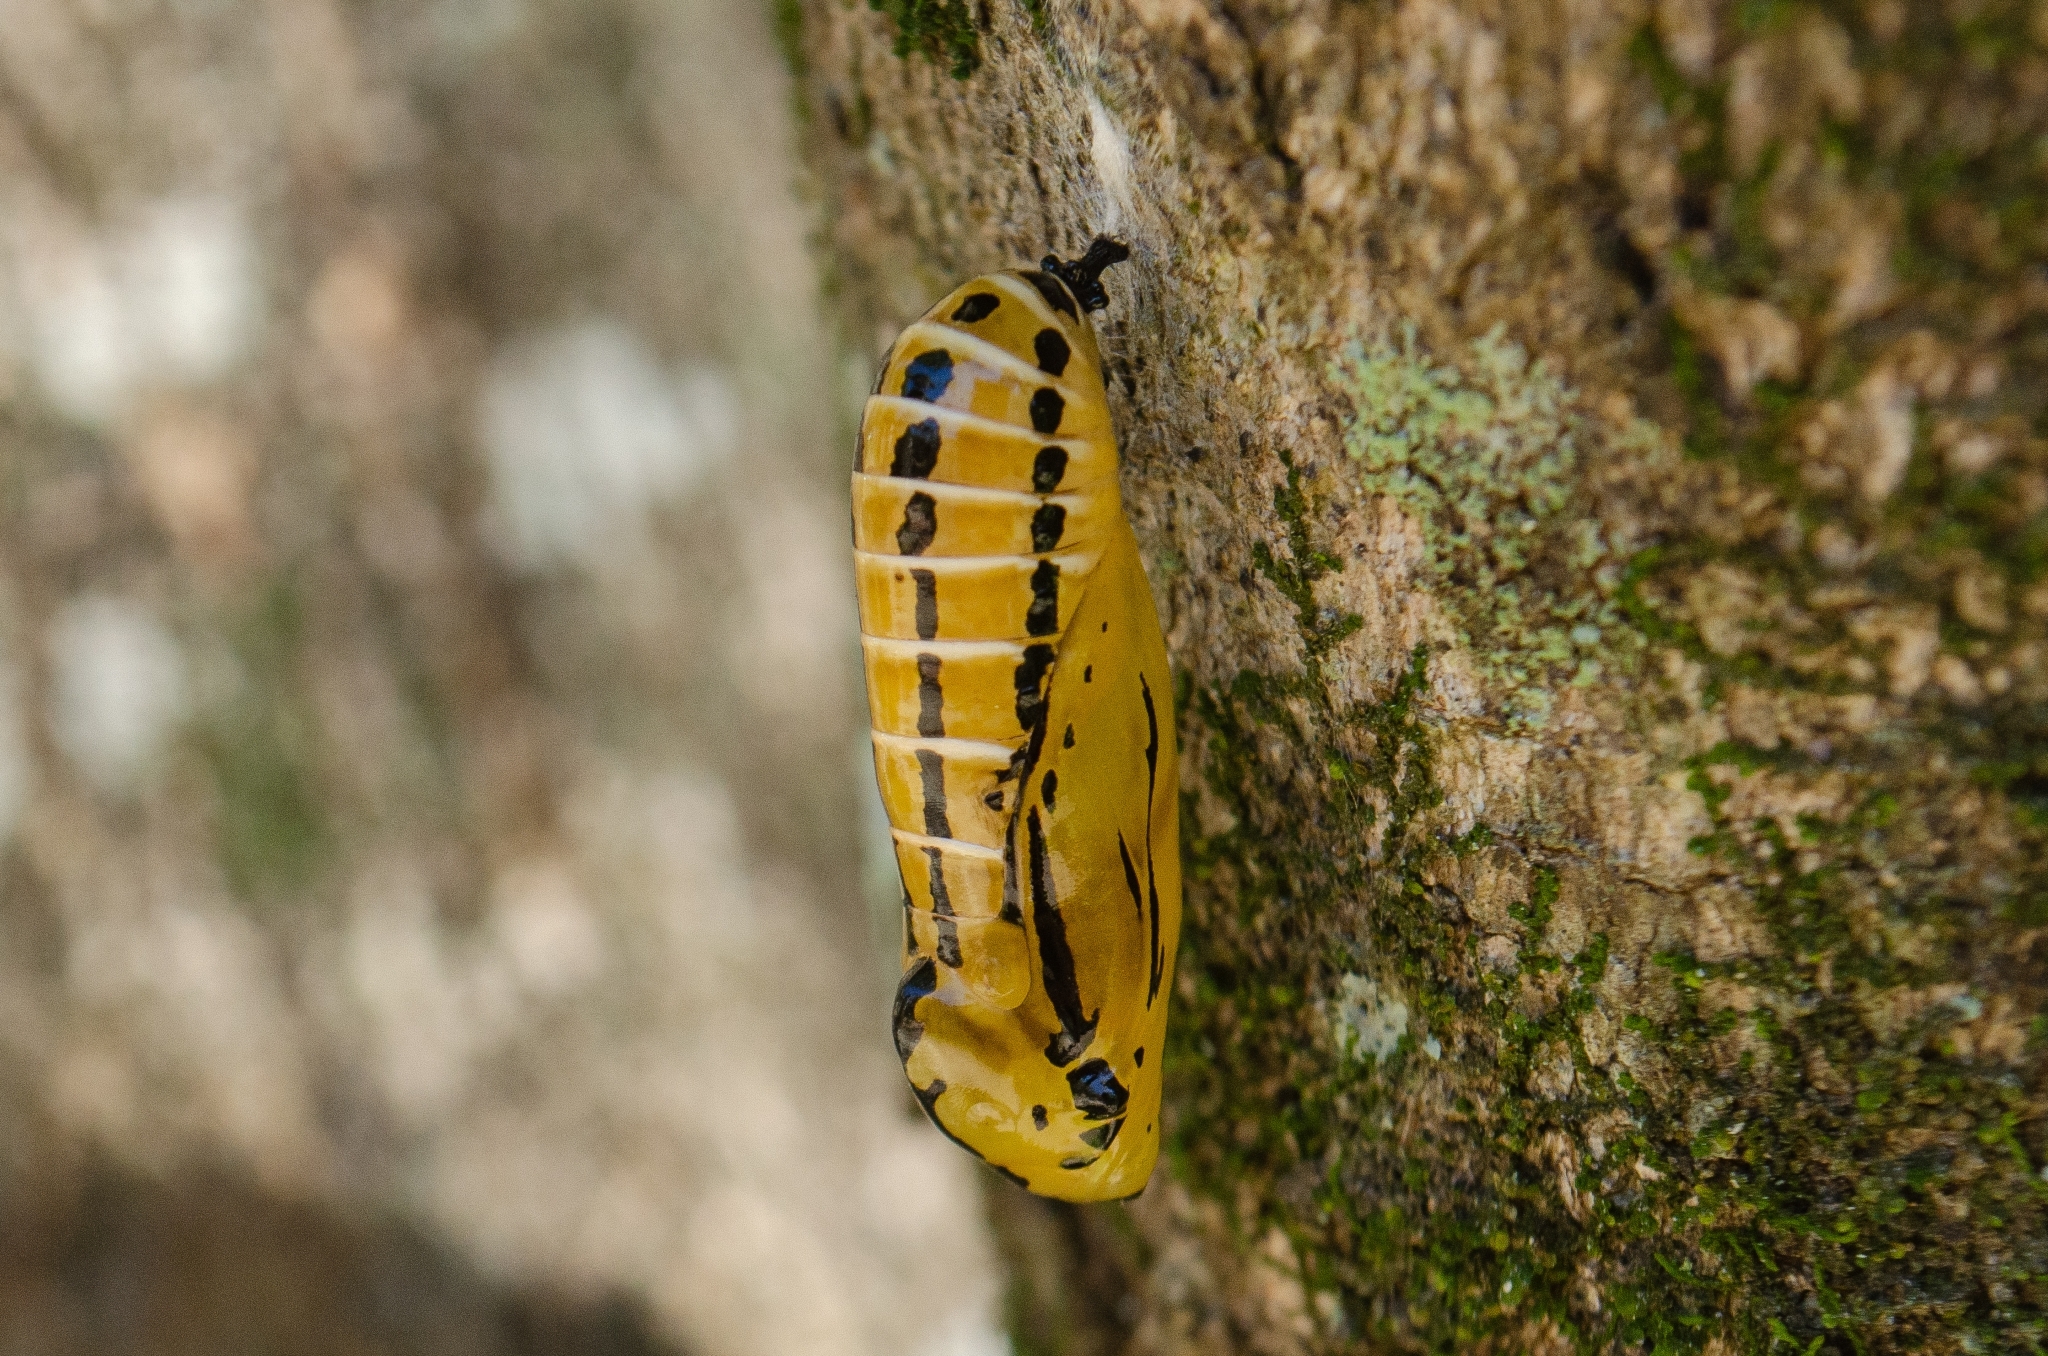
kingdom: Animalia
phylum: Arthropoda
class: Insecta
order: Lepidoptera
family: Nymphalidae
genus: Methona
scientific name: Methona themisto
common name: Themisto amberwing
